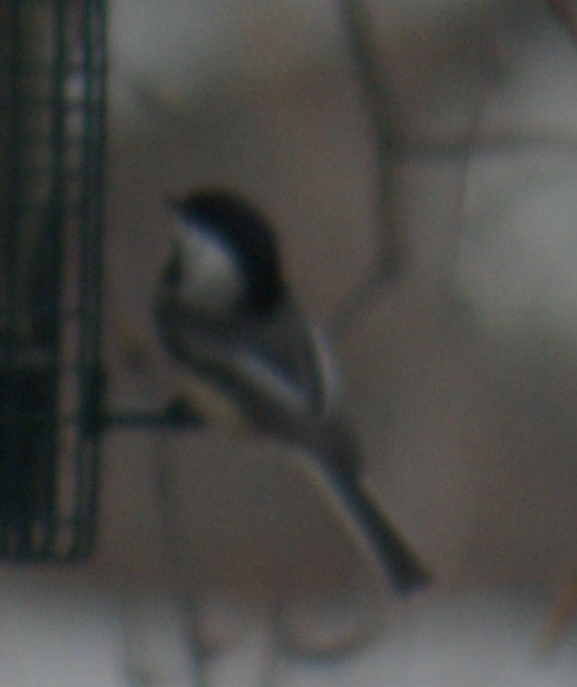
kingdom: Animalia
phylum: Chordata
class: Aves
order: Passeriformes
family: Paridae
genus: Poecile
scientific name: Poecile atricapillus
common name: Black-capped chickadee
